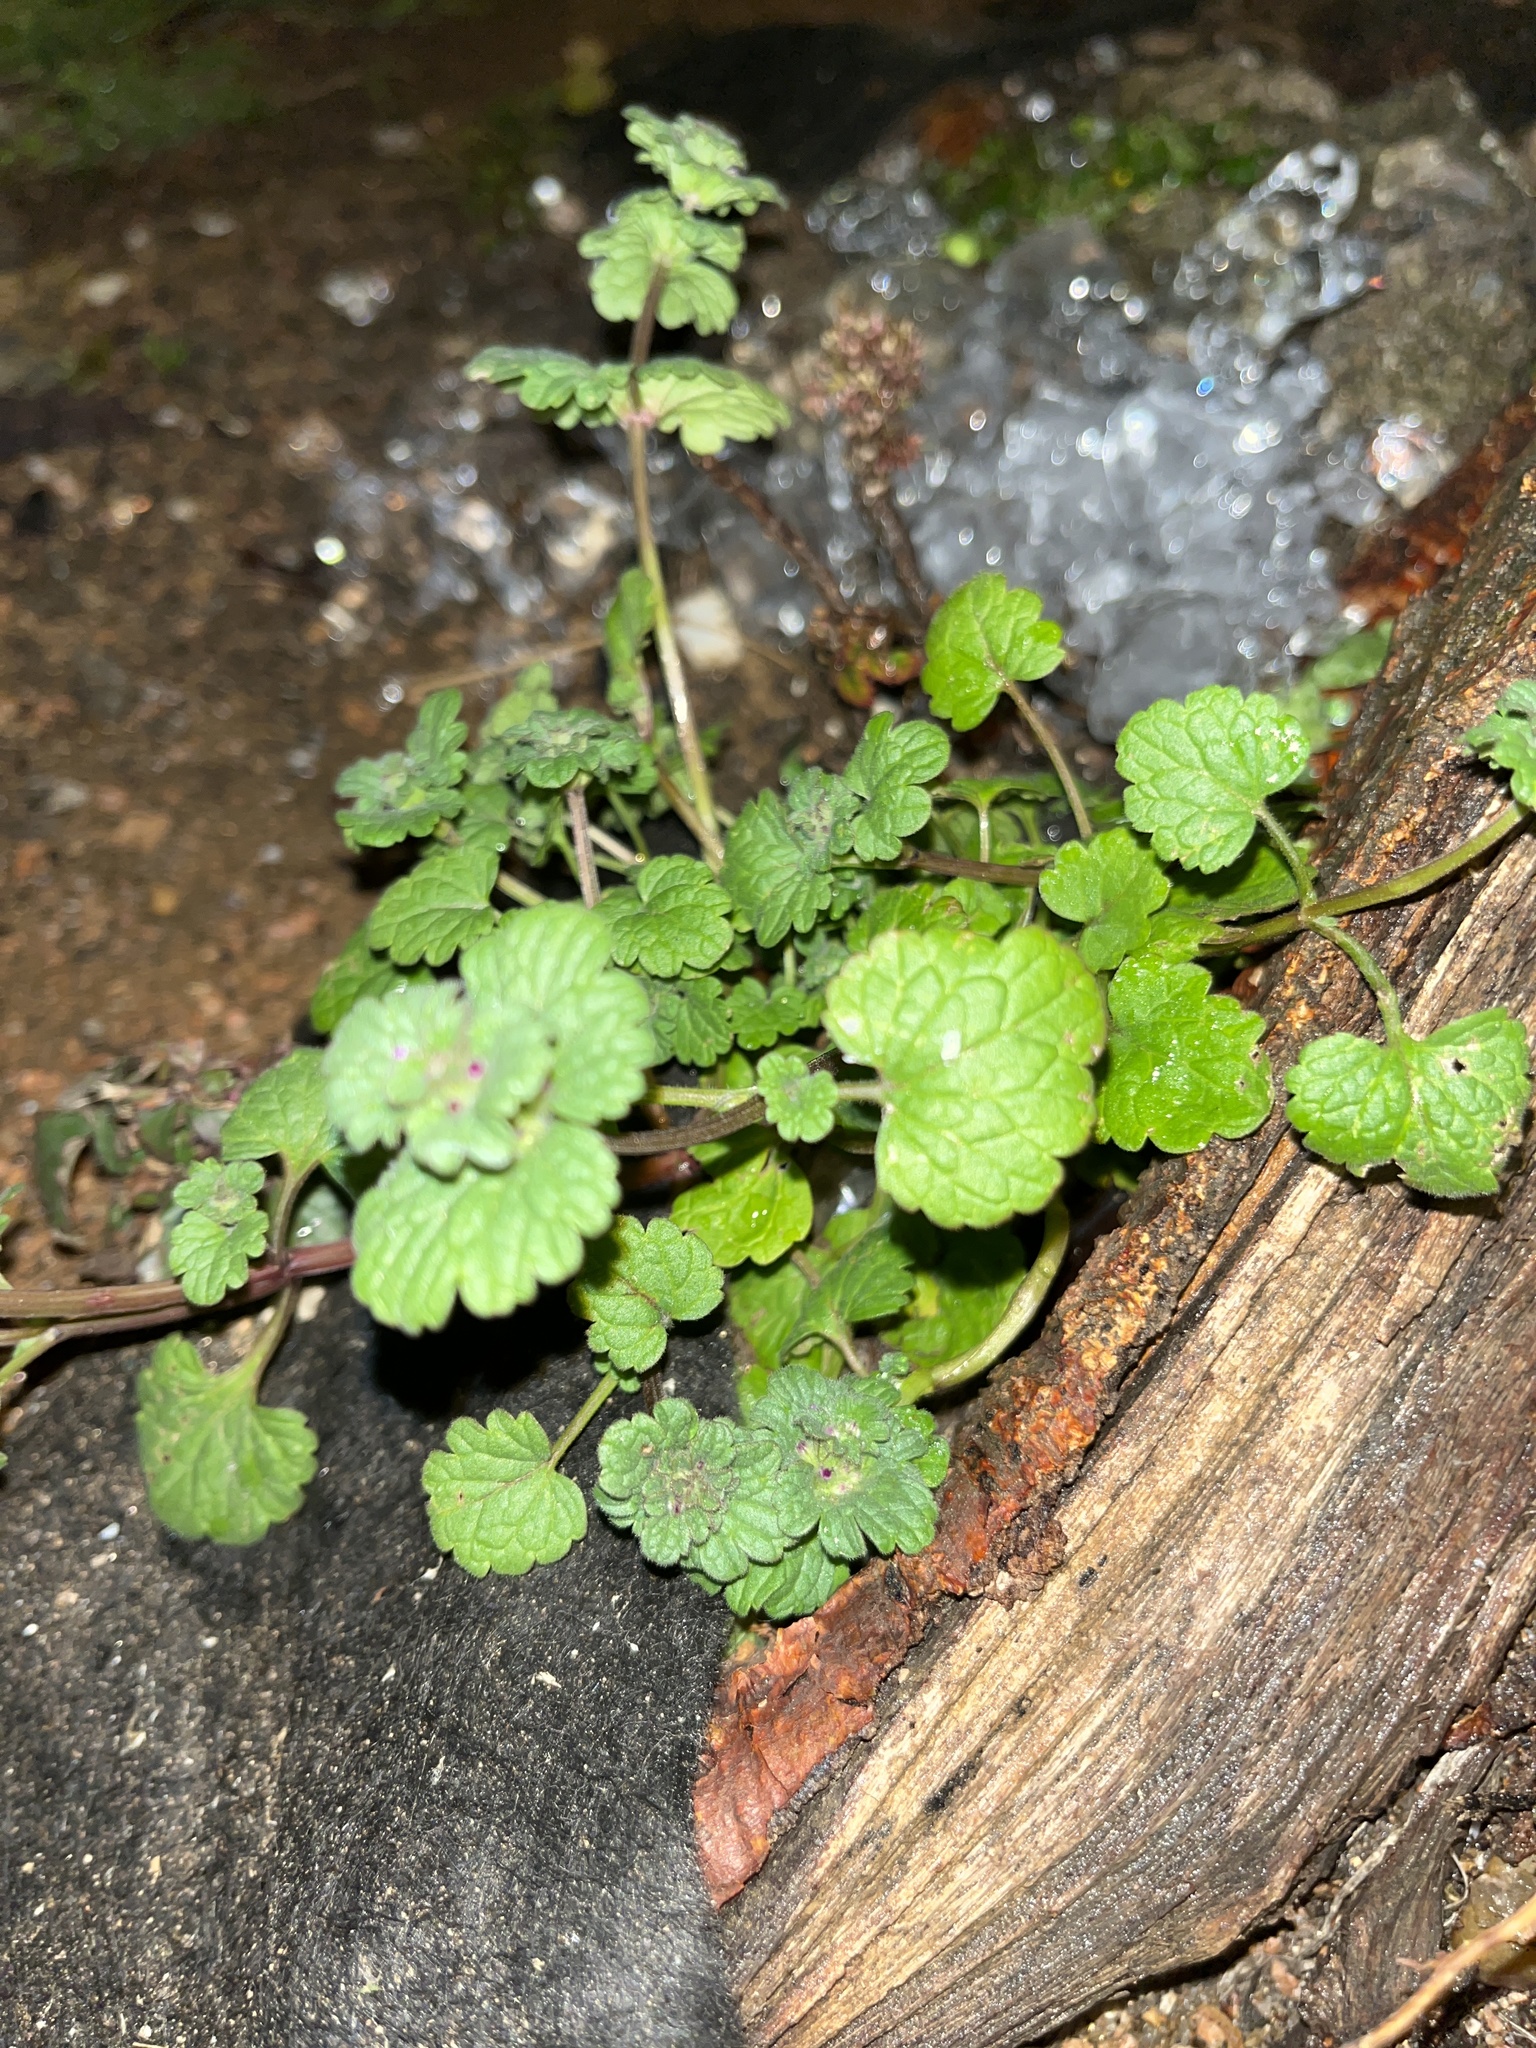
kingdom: Plantae
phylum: Tracheophyta
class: Magnoliopsida
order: Lamiales
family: Lamiaceae
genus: Lamium
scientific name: Lamium amplexicaule
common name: Henbit dead-nettle
